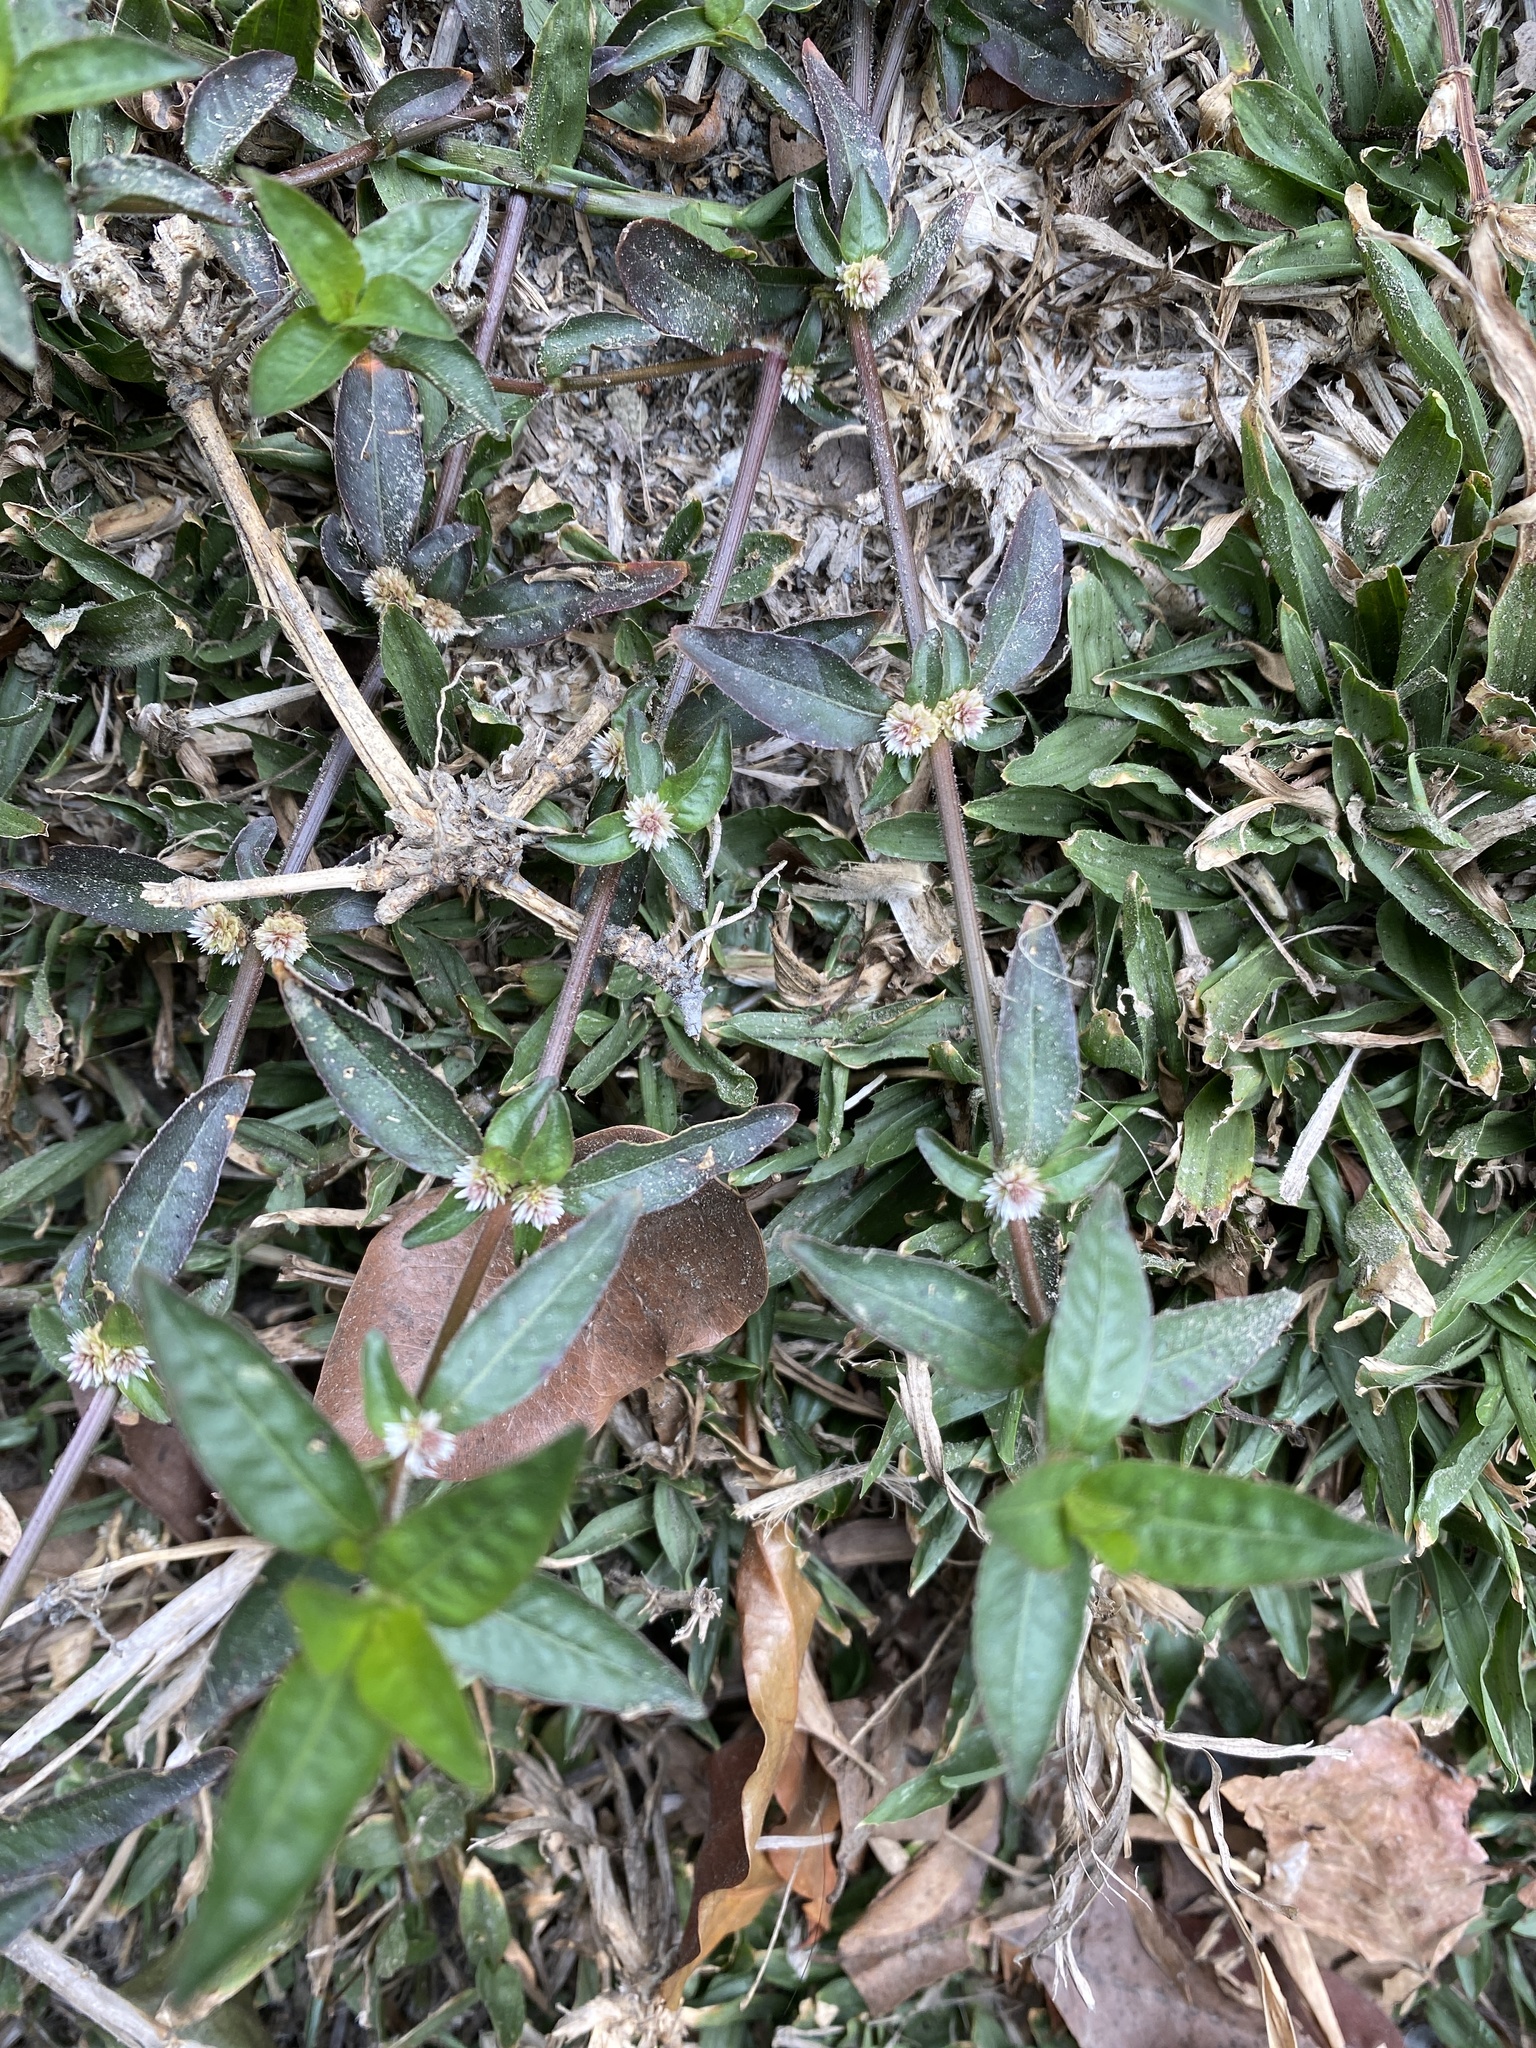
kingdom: Plantae
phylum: Tracheophyta
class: Magnoliopsida
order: Caryophyllales
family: Amaranthaceae
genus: Alternanthera
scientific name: Alternanthera sessilis
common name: Sessile joyweed
